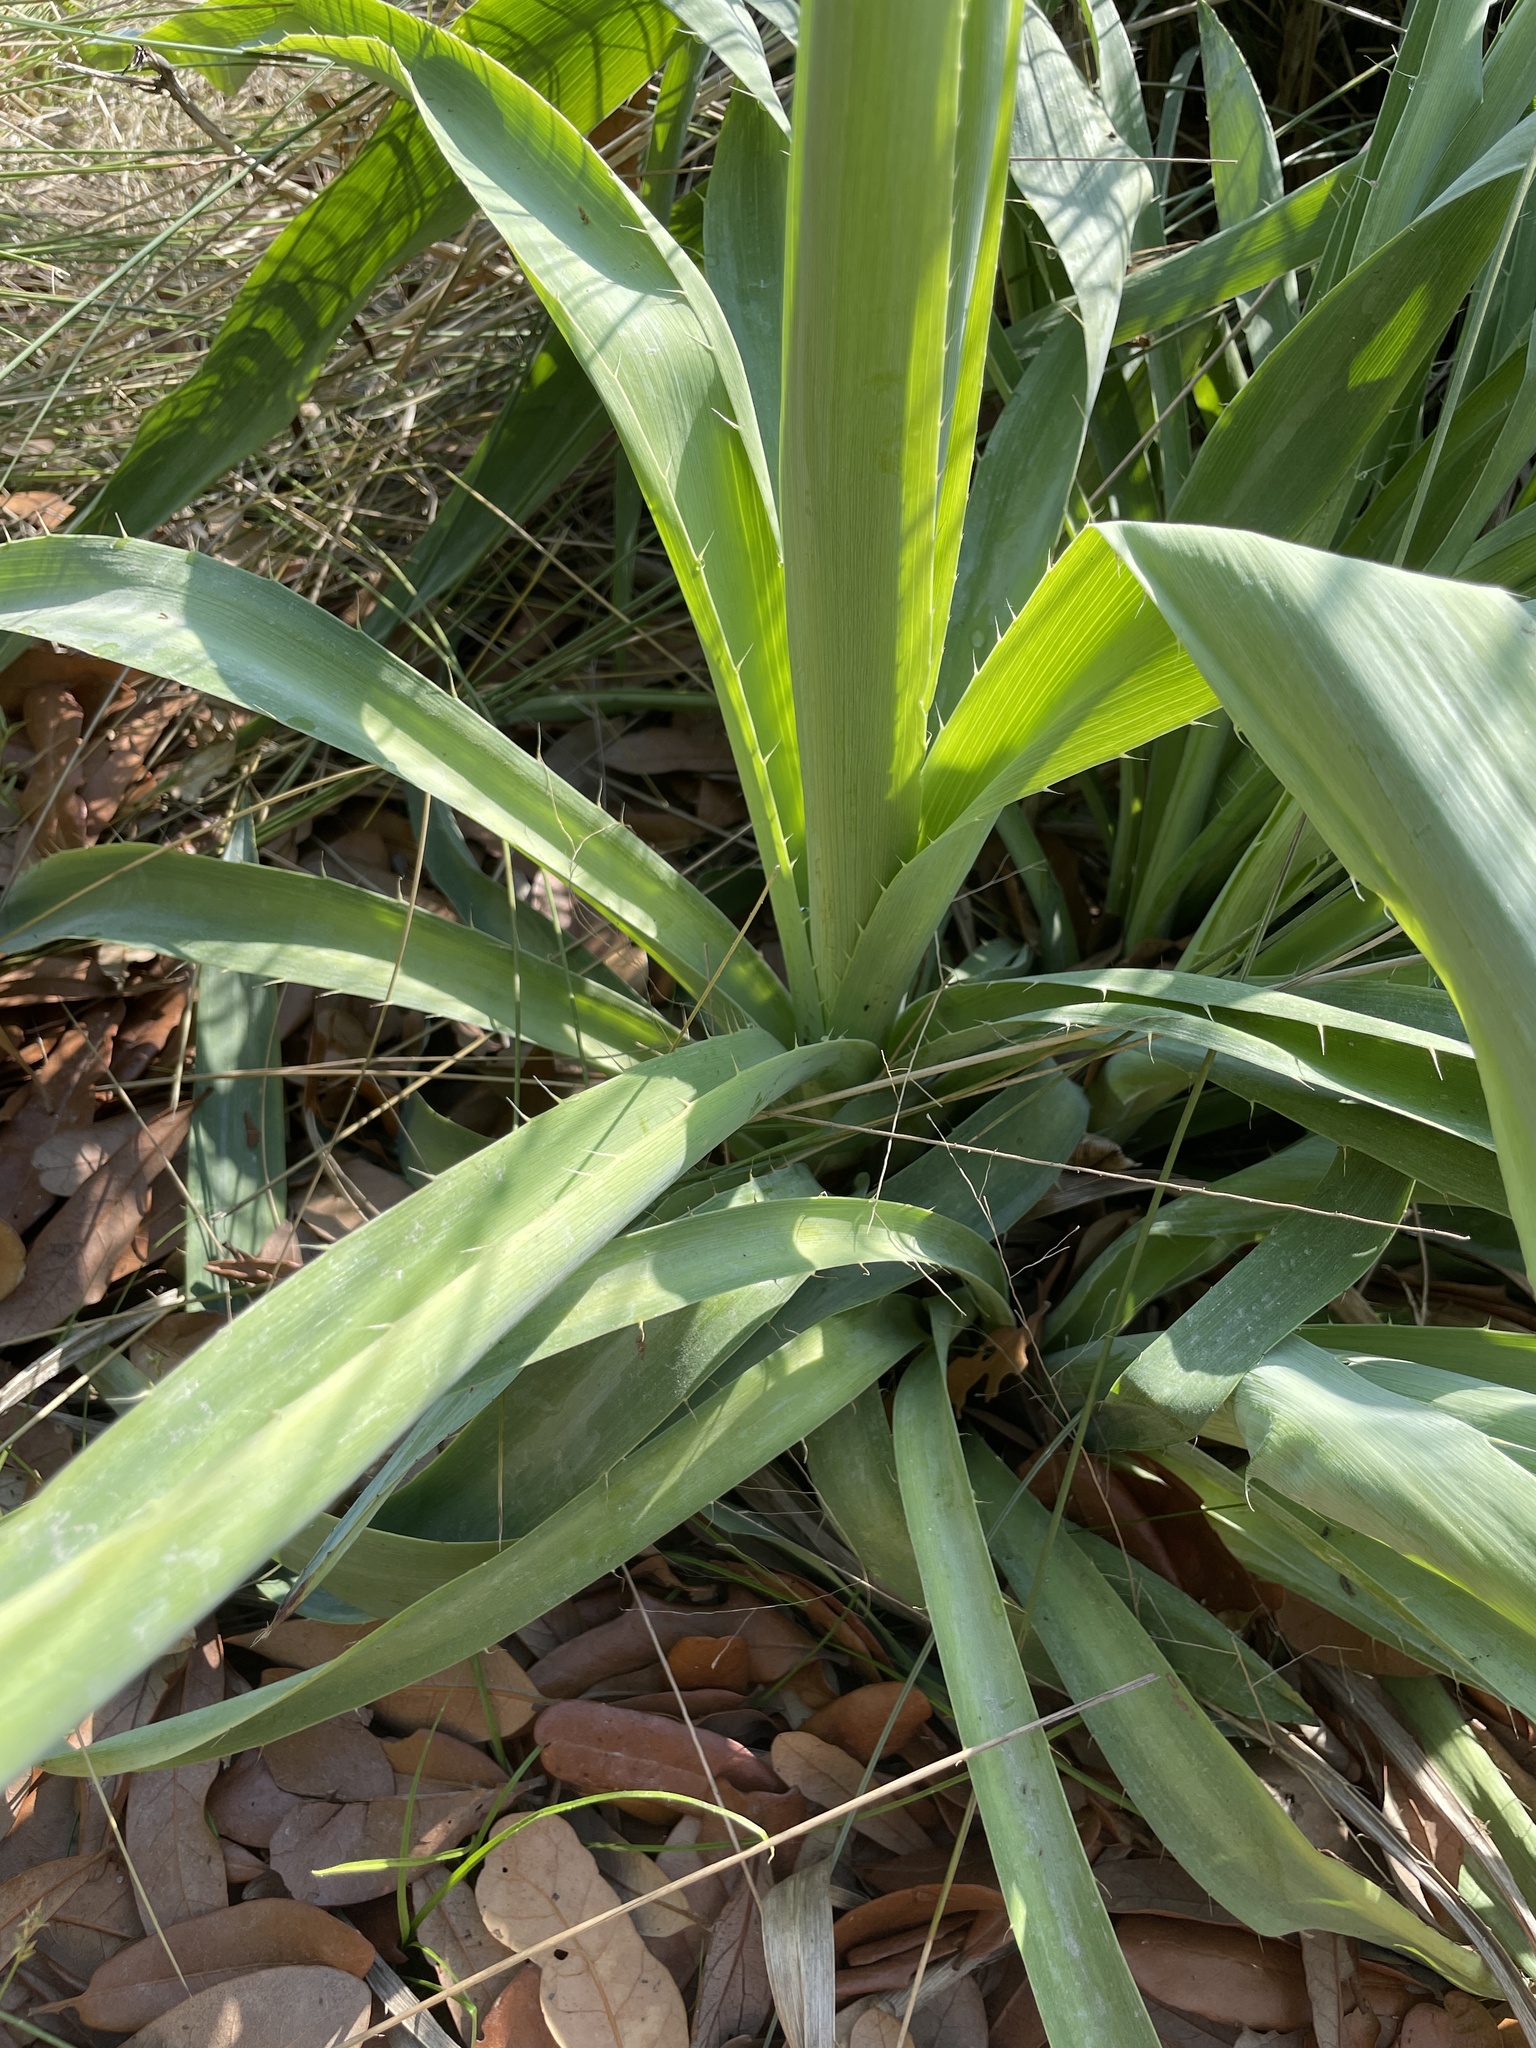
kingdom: Plantae
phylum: Tracheophyta
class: Magnoliopsida
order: Apiales
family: Apiaceae
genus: Eryngium
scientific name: Eryngium yuccifolium
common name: Button eryngo
